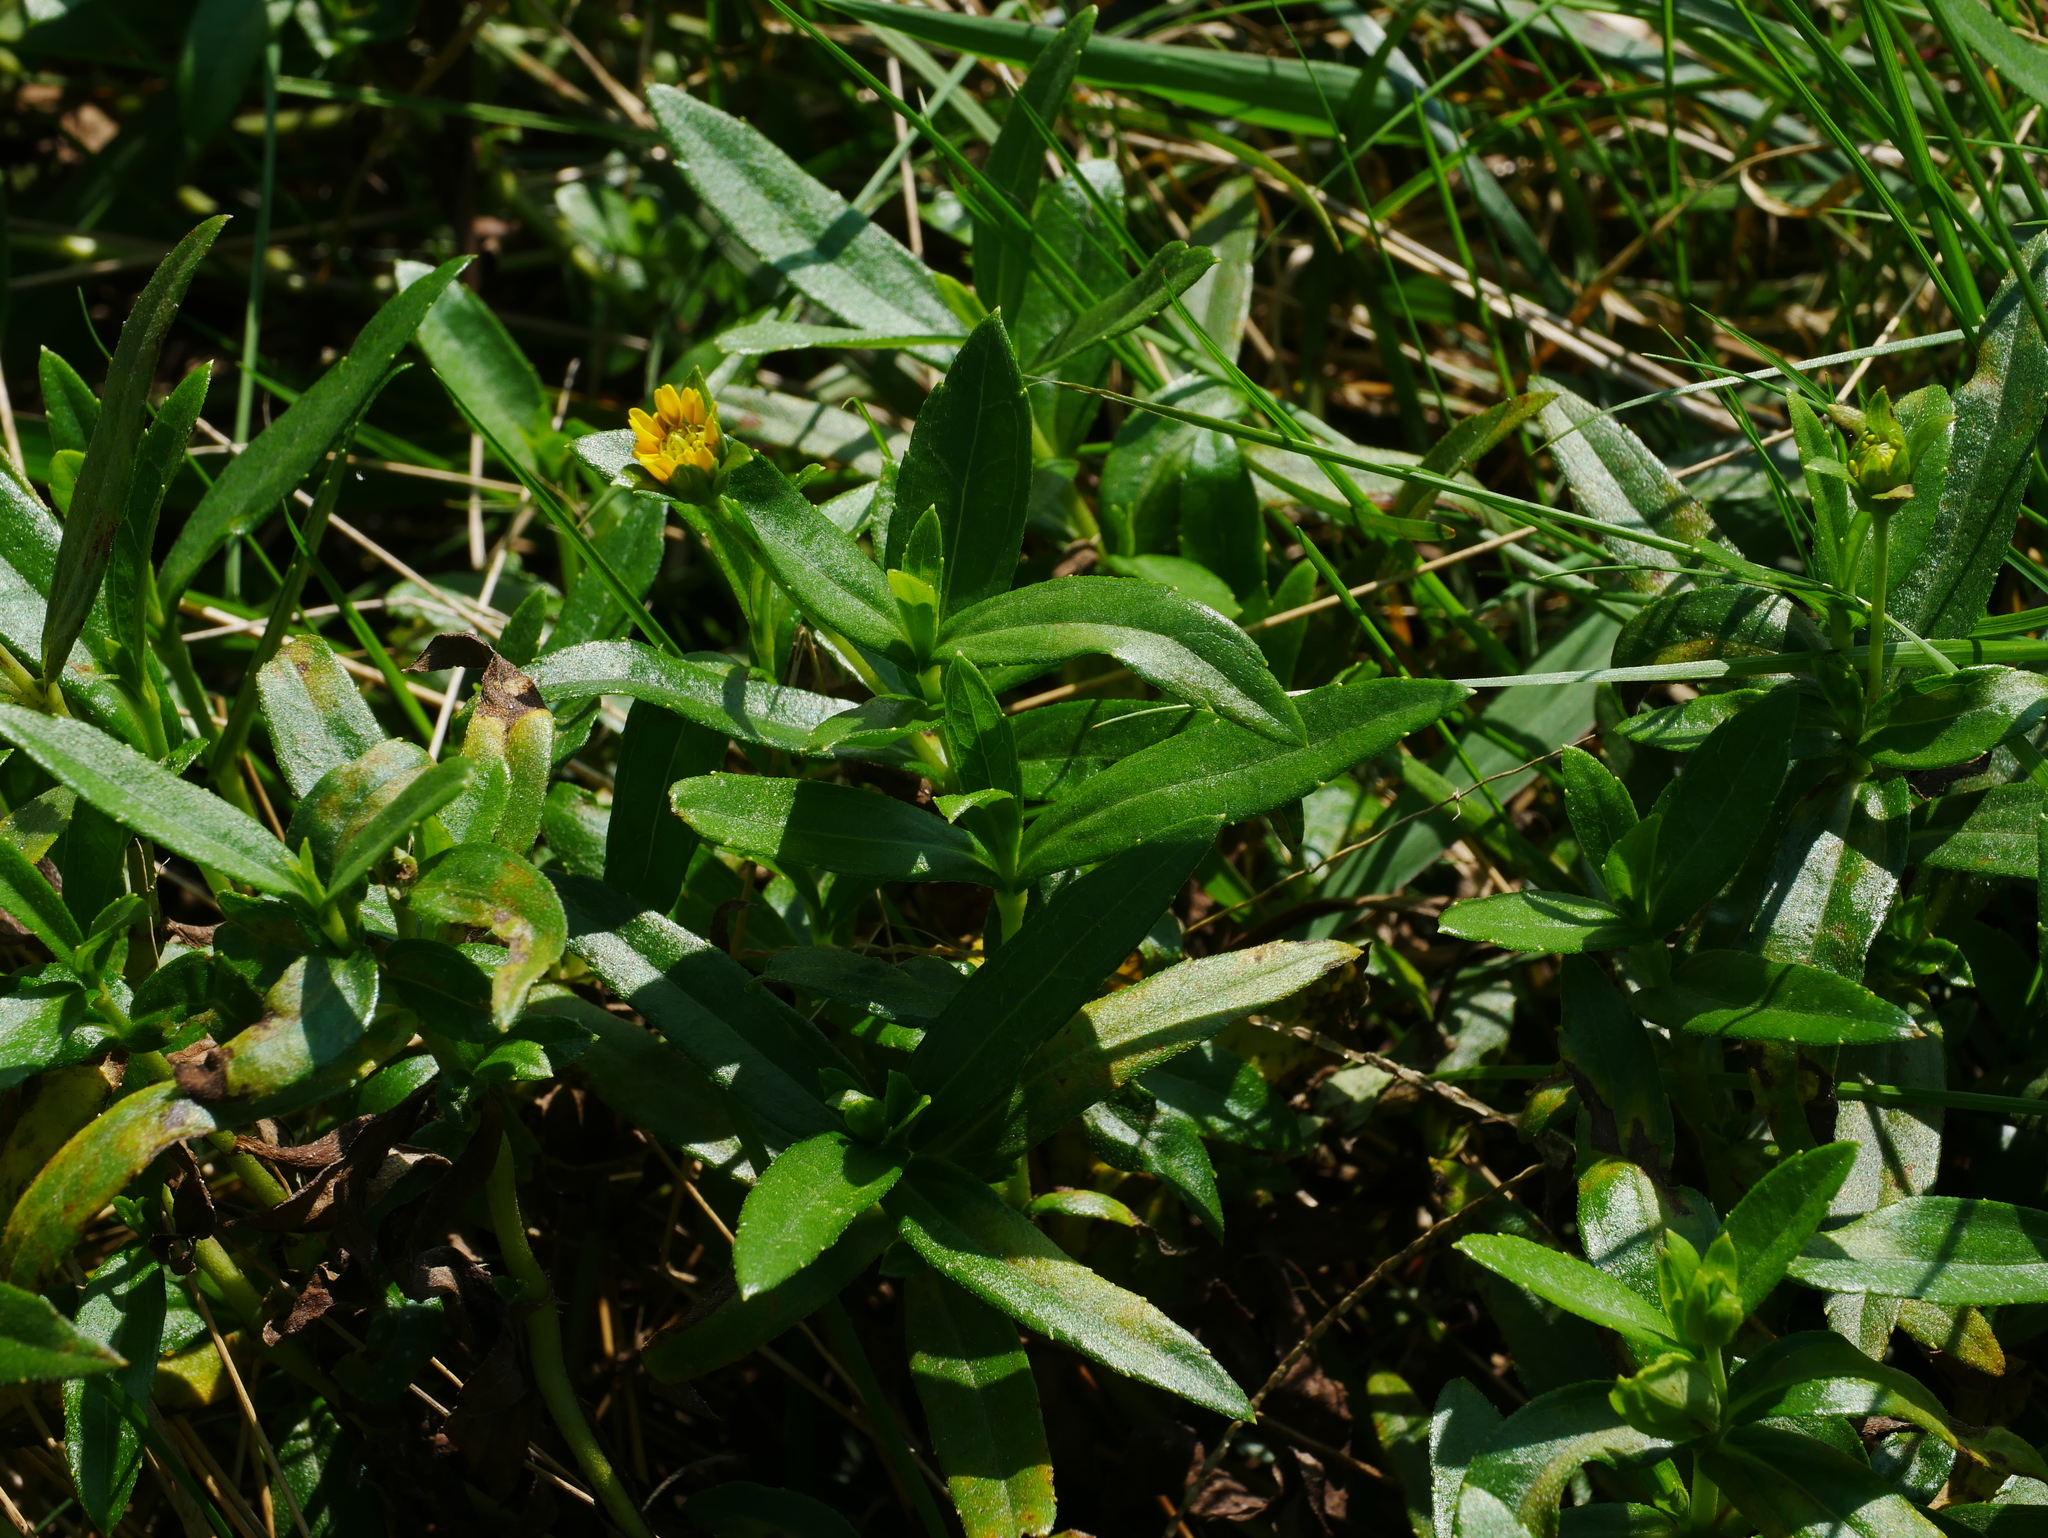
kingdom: Plantae
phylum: Tracheophyta
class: Magnoliopsida
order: Asterales
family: Asteraceae
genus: Sphagneticola
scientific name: Sphagneticola calendulacea
